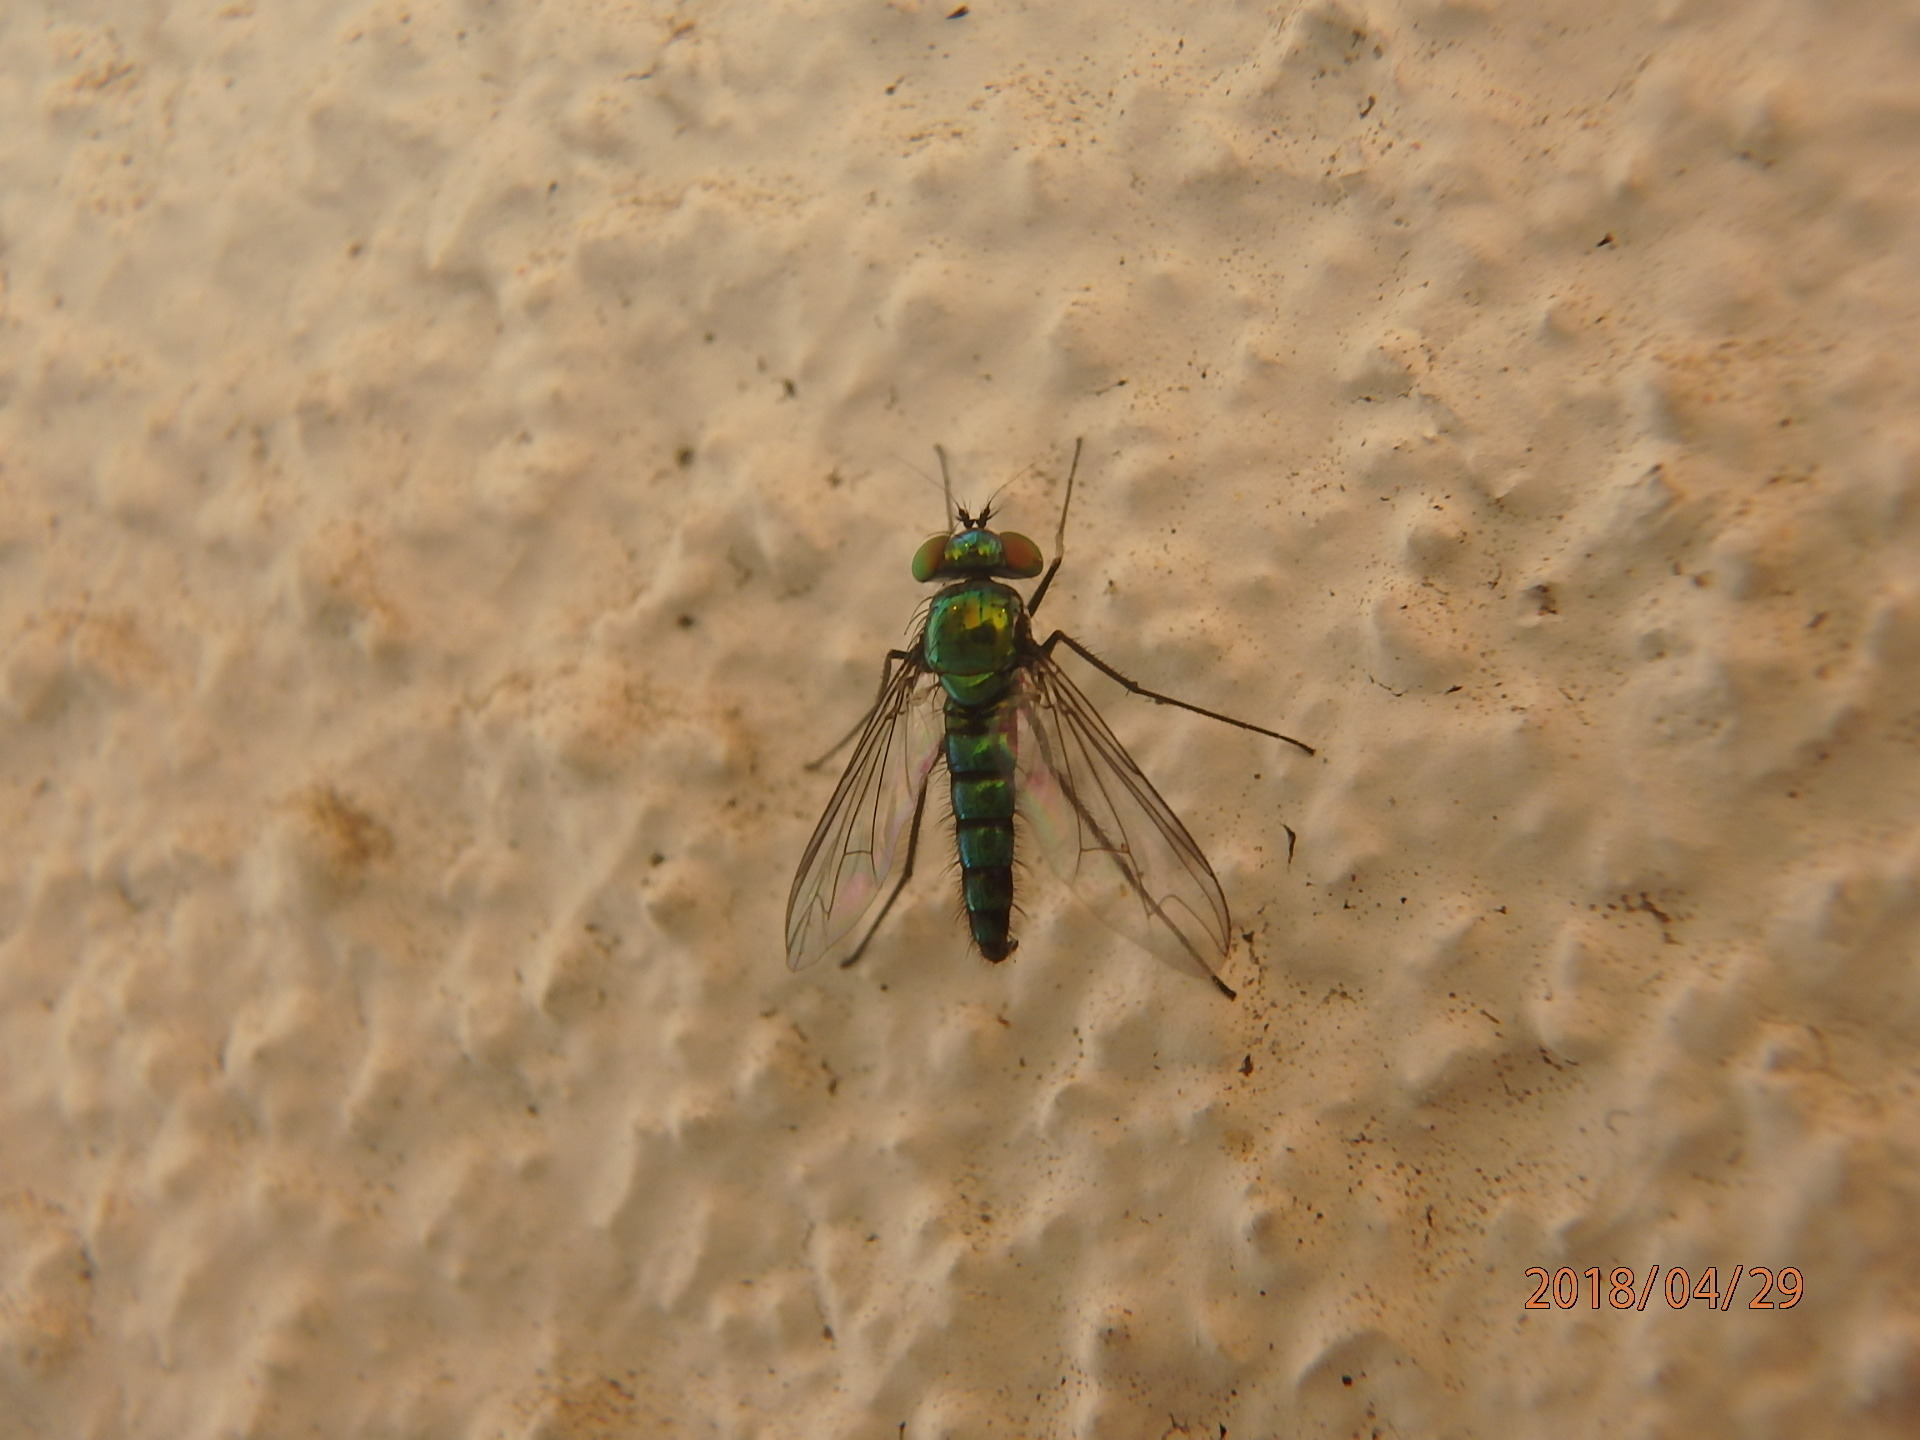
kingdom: Animalia
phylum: Arthropoda
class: Insecta
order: Diptera
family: Dolichopodidae
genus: Condylostylus
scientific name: Condylostylus longicornis
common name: Long-legged fly
